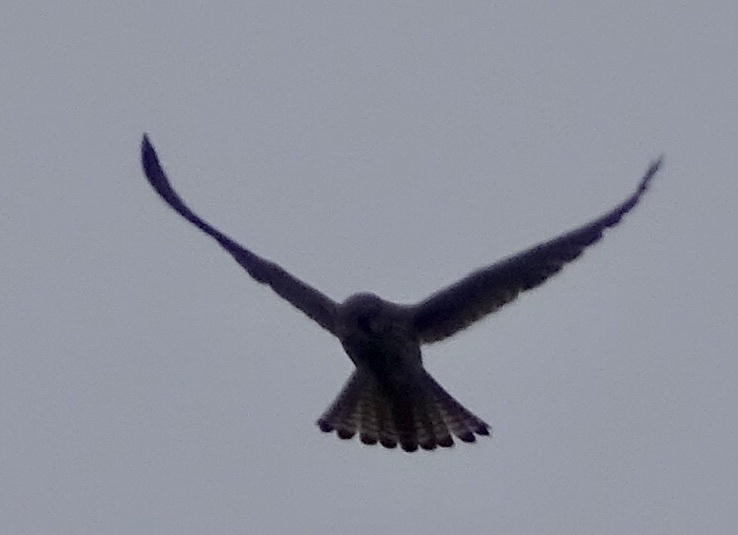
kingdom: Animalia
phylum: Chordata
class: Aves
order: Falconiformes
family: Falconidae
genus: Falco
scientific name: Falco tinnunculus
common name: Common kestrel
